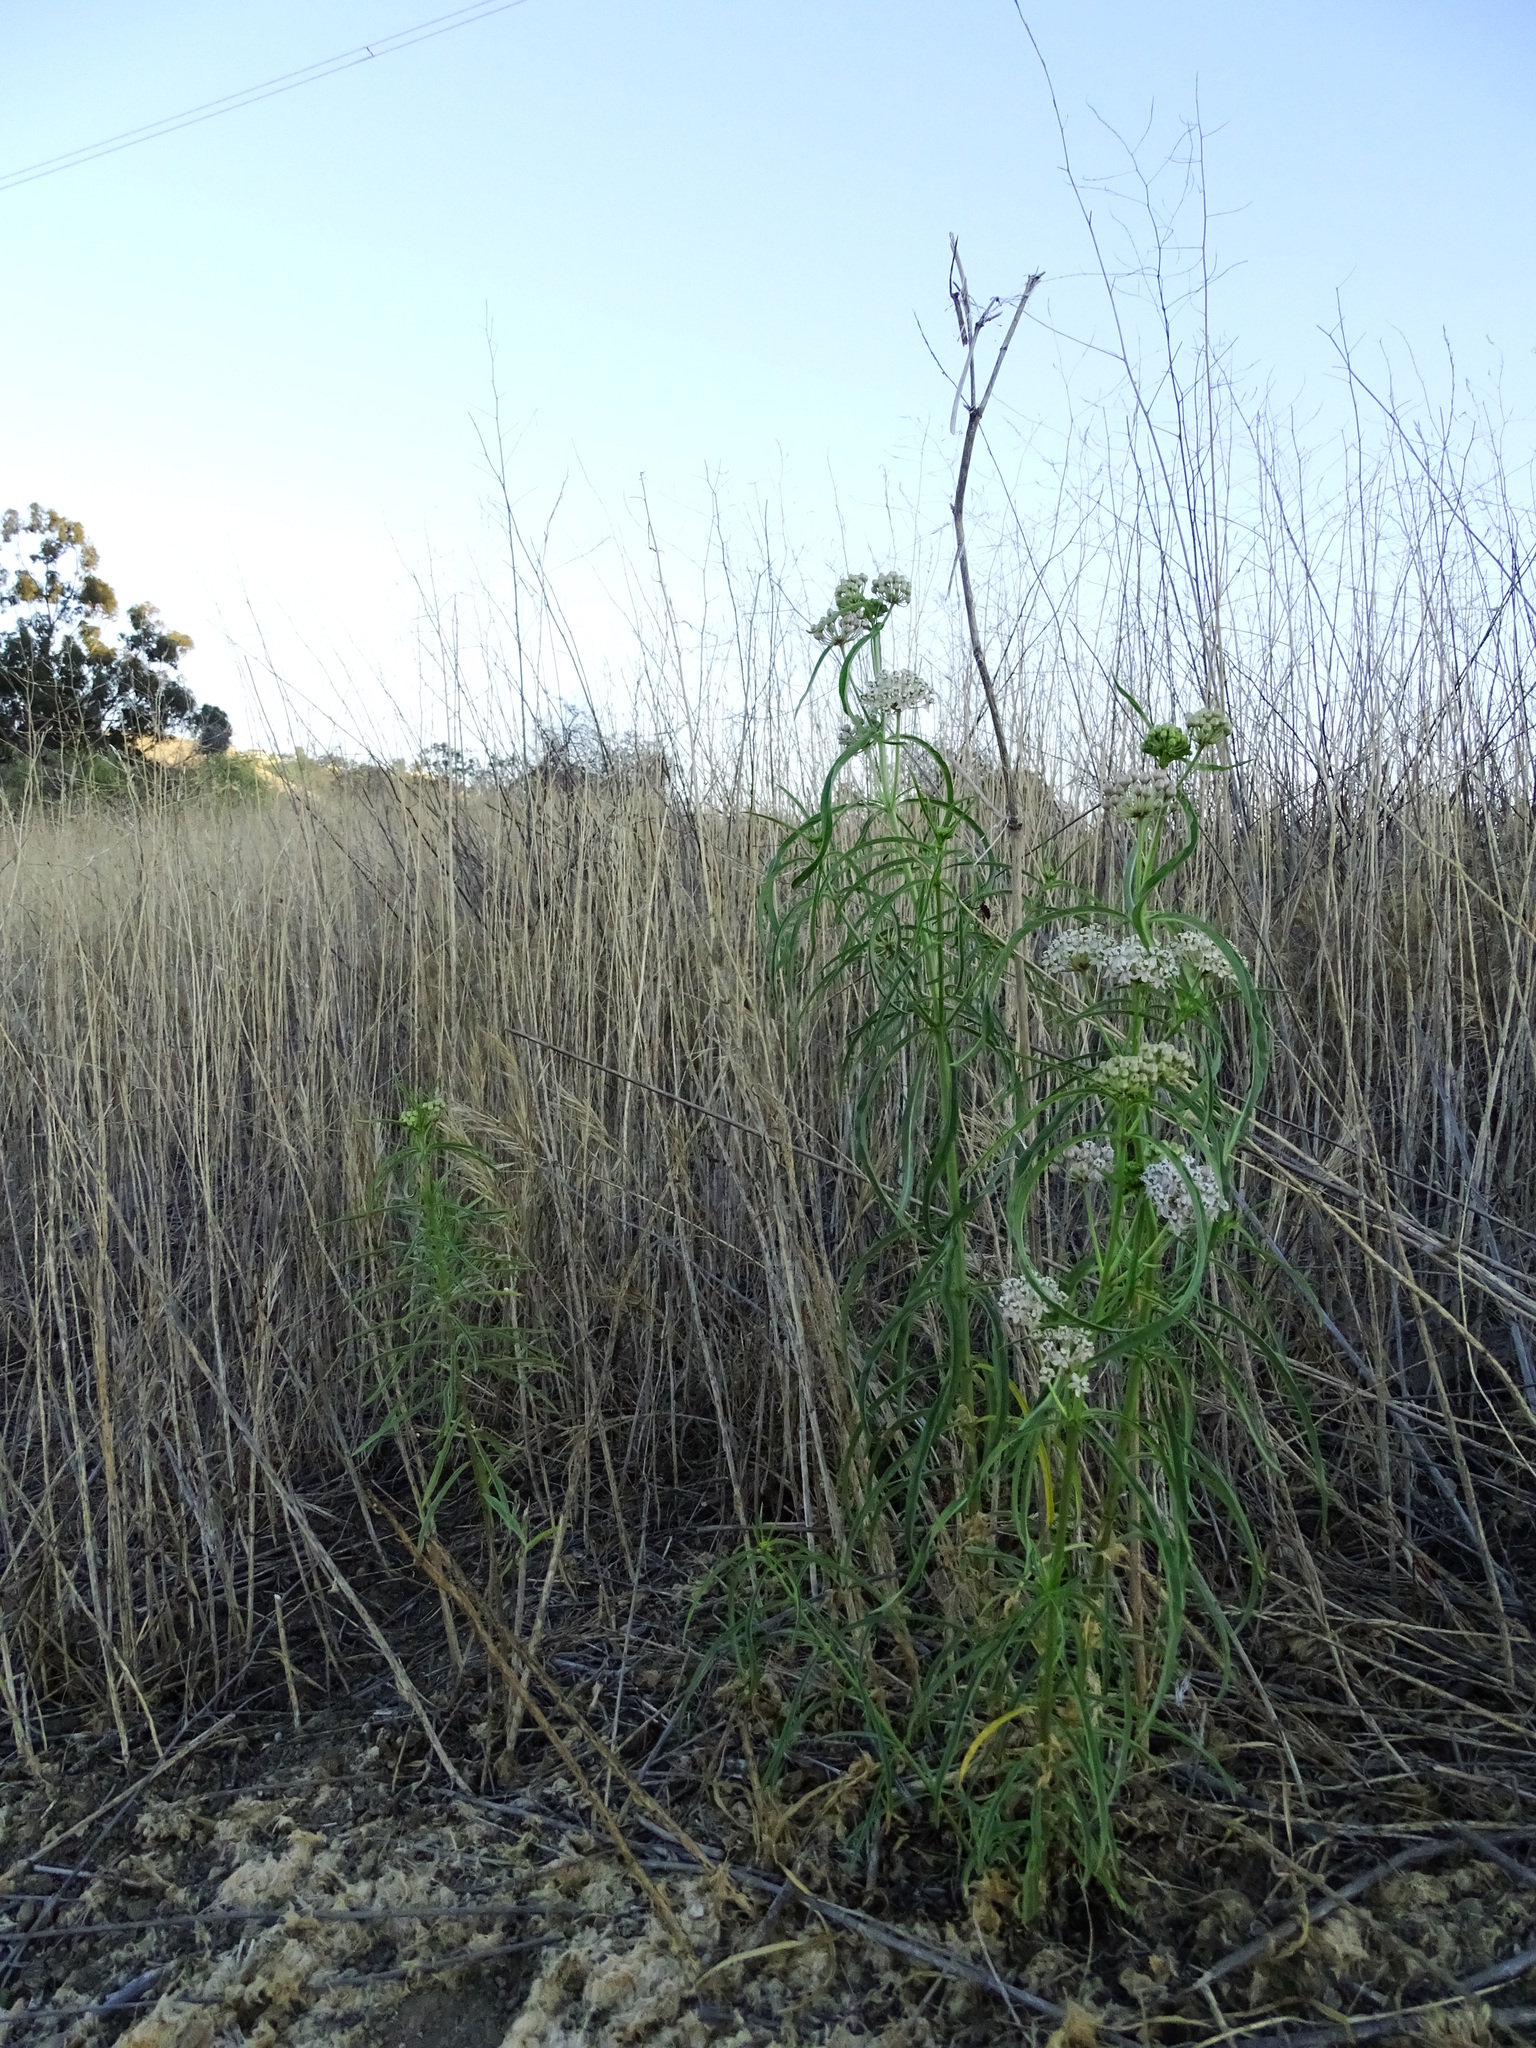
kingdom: Plantae
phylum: Tracheophyta
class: Magnoliopsida
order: Gentianales
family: Apocynaceae
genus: Asclepias
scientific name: Asclepias fascicularis
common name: Mexican milkweed
